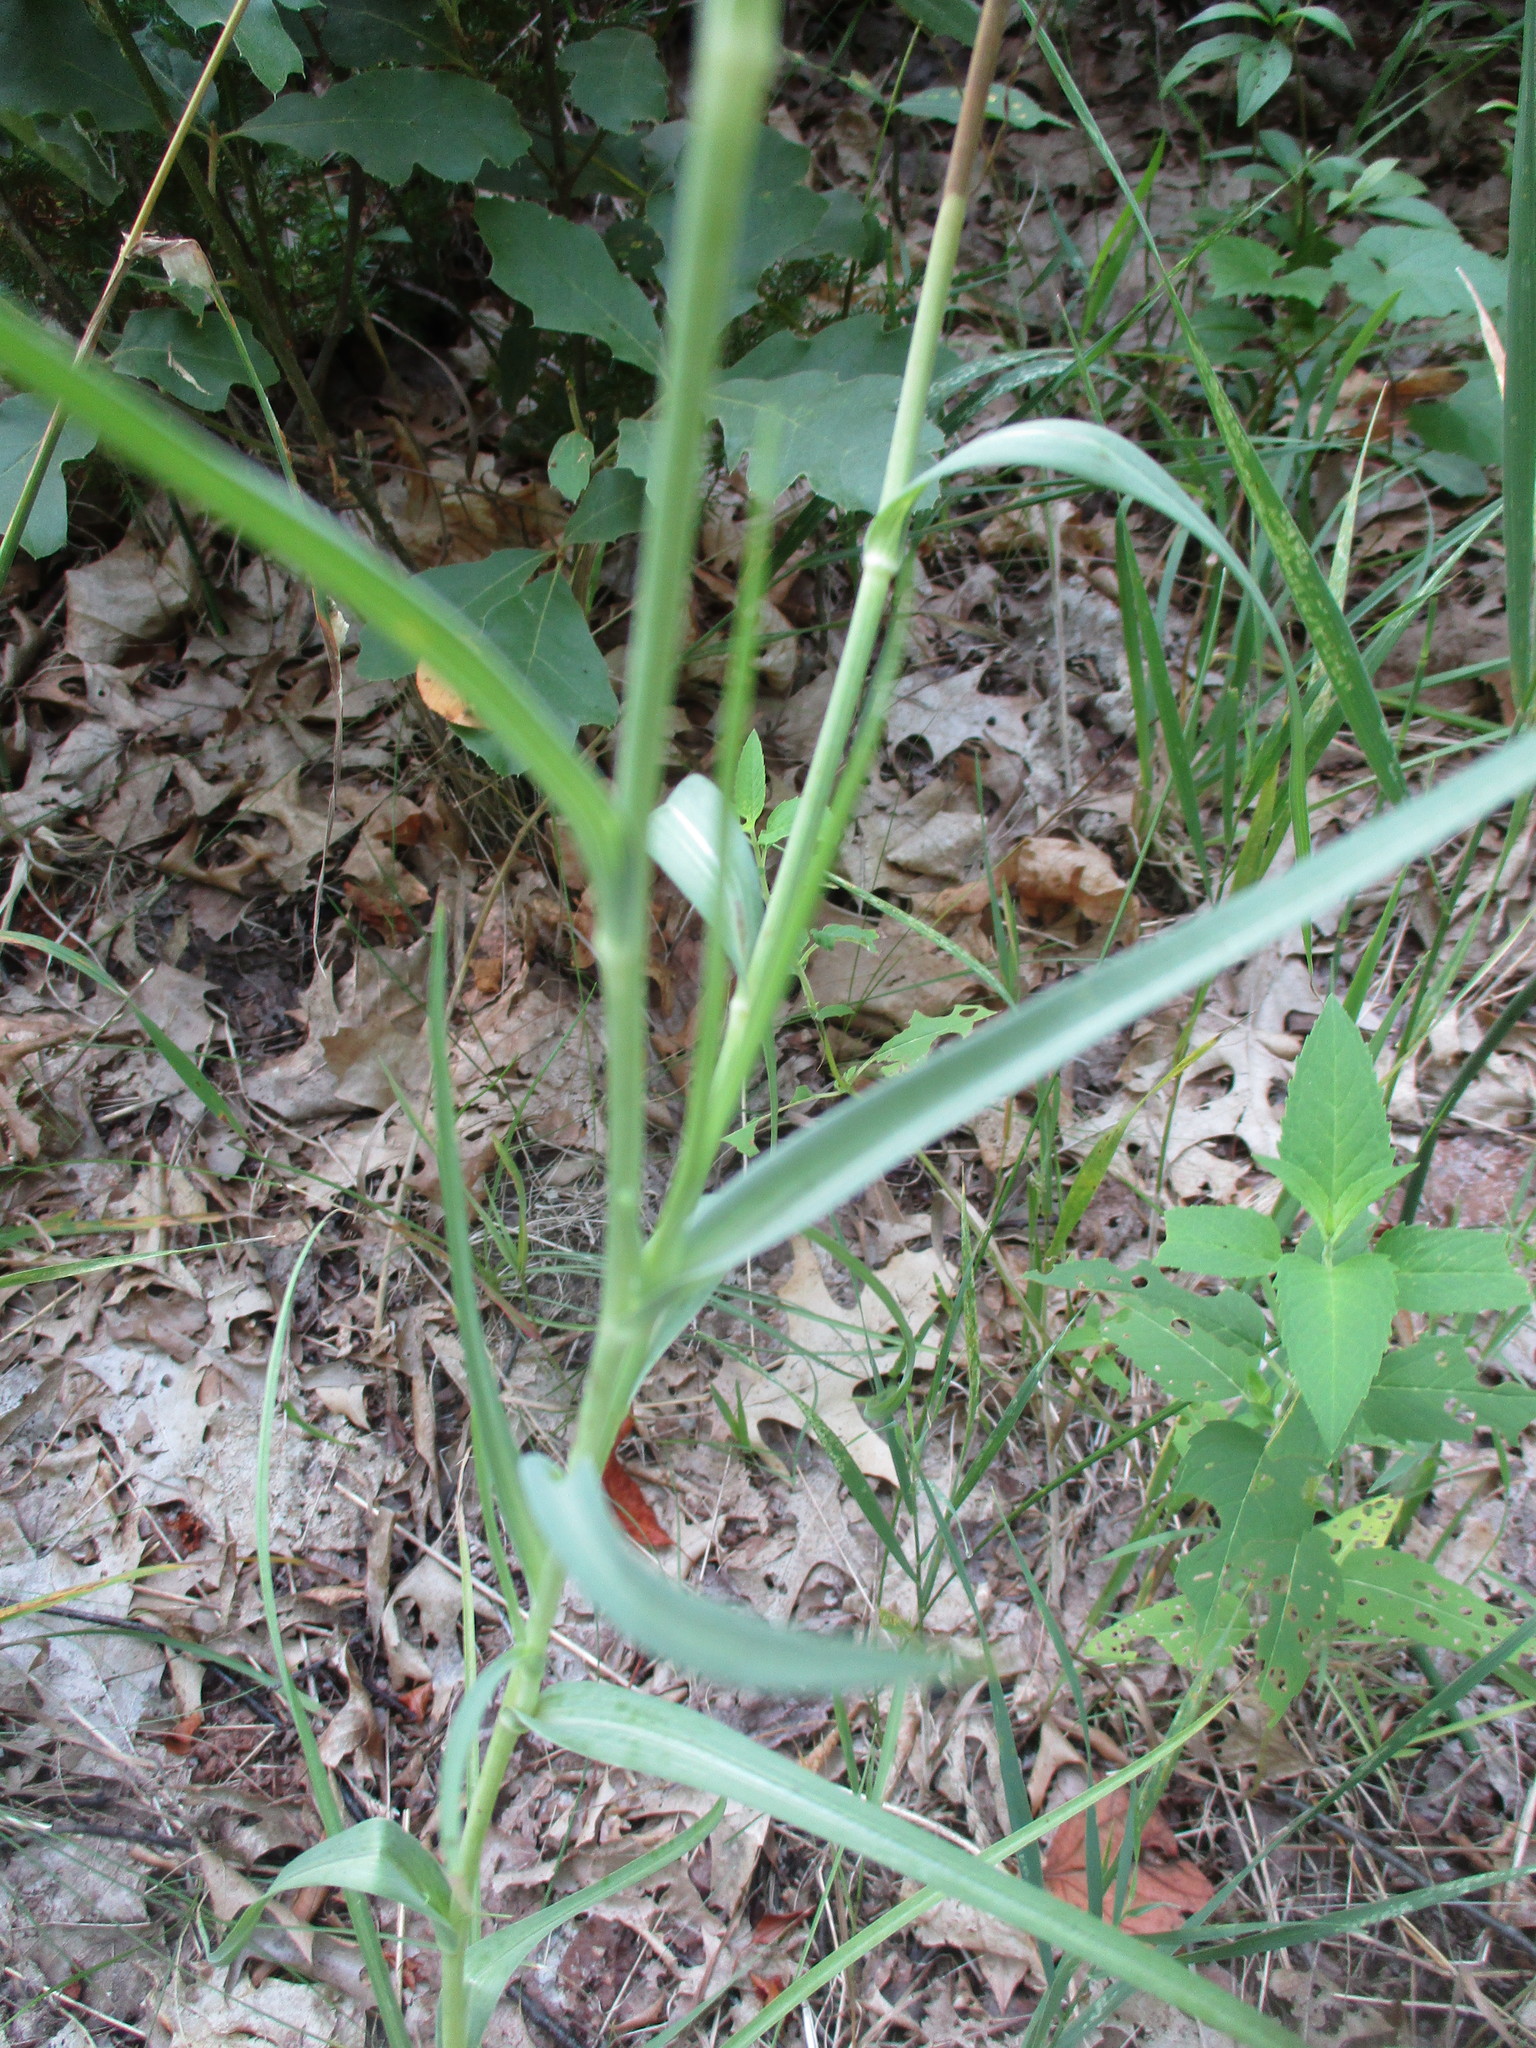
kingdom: Plantae
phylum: Tracheophyta
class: Magnoliopsida
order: Asterales
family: Asteraceae
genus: Tragopogon
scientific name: Tragopogon dubius
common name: Yellow salsify
